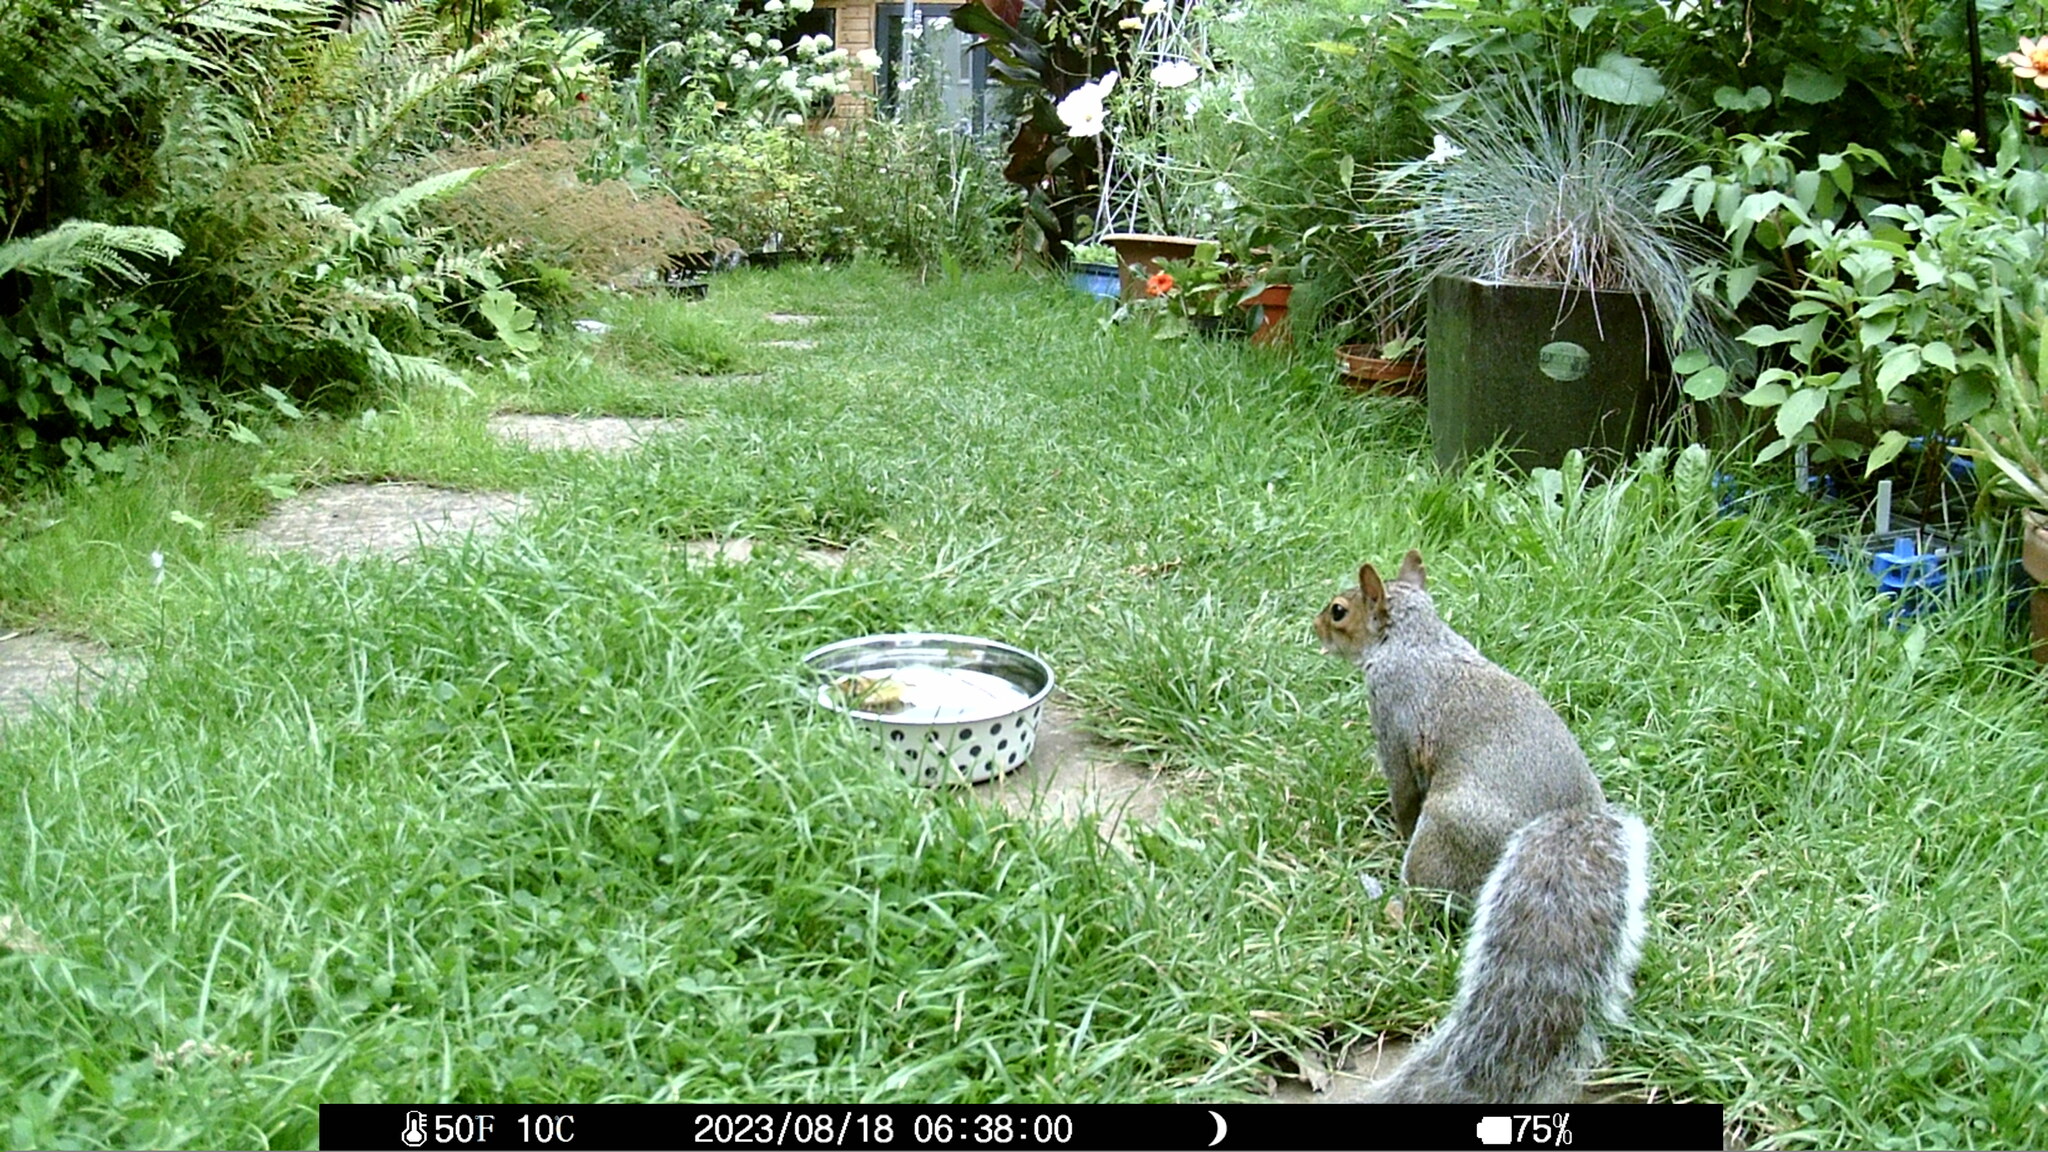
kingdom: Animalia
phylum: Chordata
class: Mammalia
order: Rodentia
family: Sciuridae
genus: Sciurus
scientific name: Sciurus carolinensis
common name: Eastern gray squirrel
